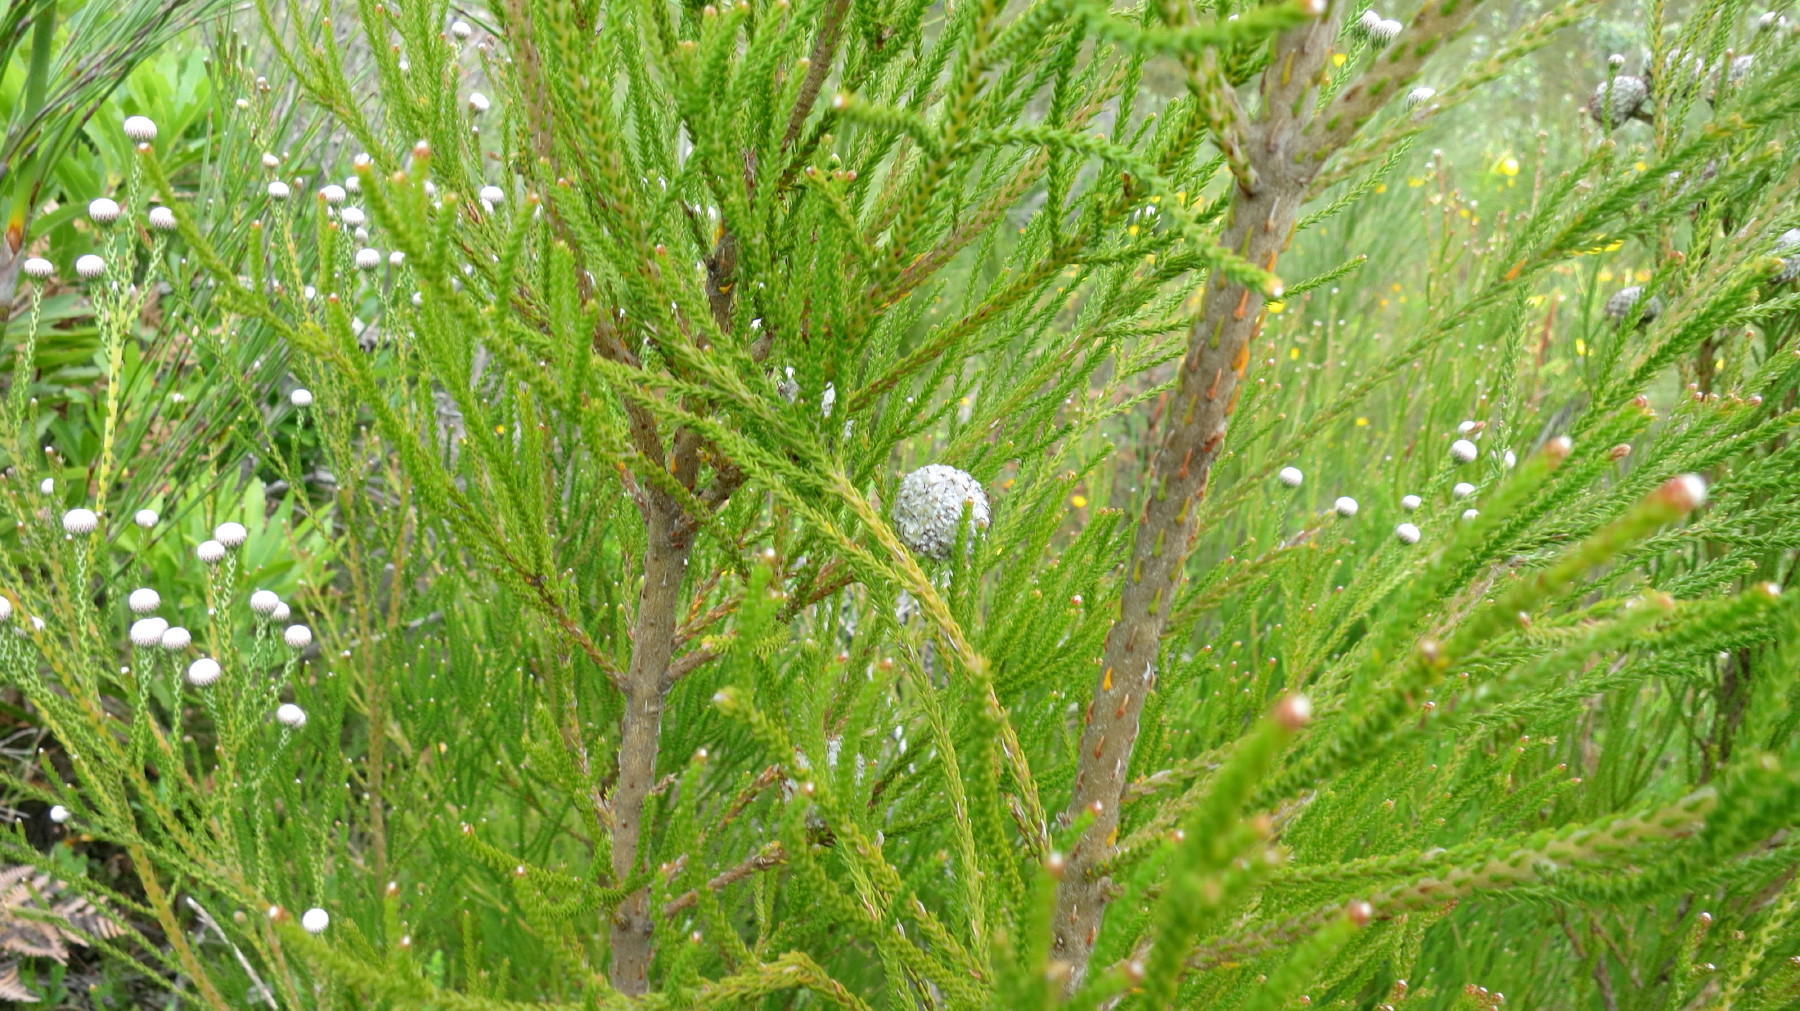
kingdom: Plantae
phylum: Tracheophyta
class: Magnoliopsida
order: Bruniales
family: Bruniaceae
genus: Brunia
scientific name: Brunia noduliflora
